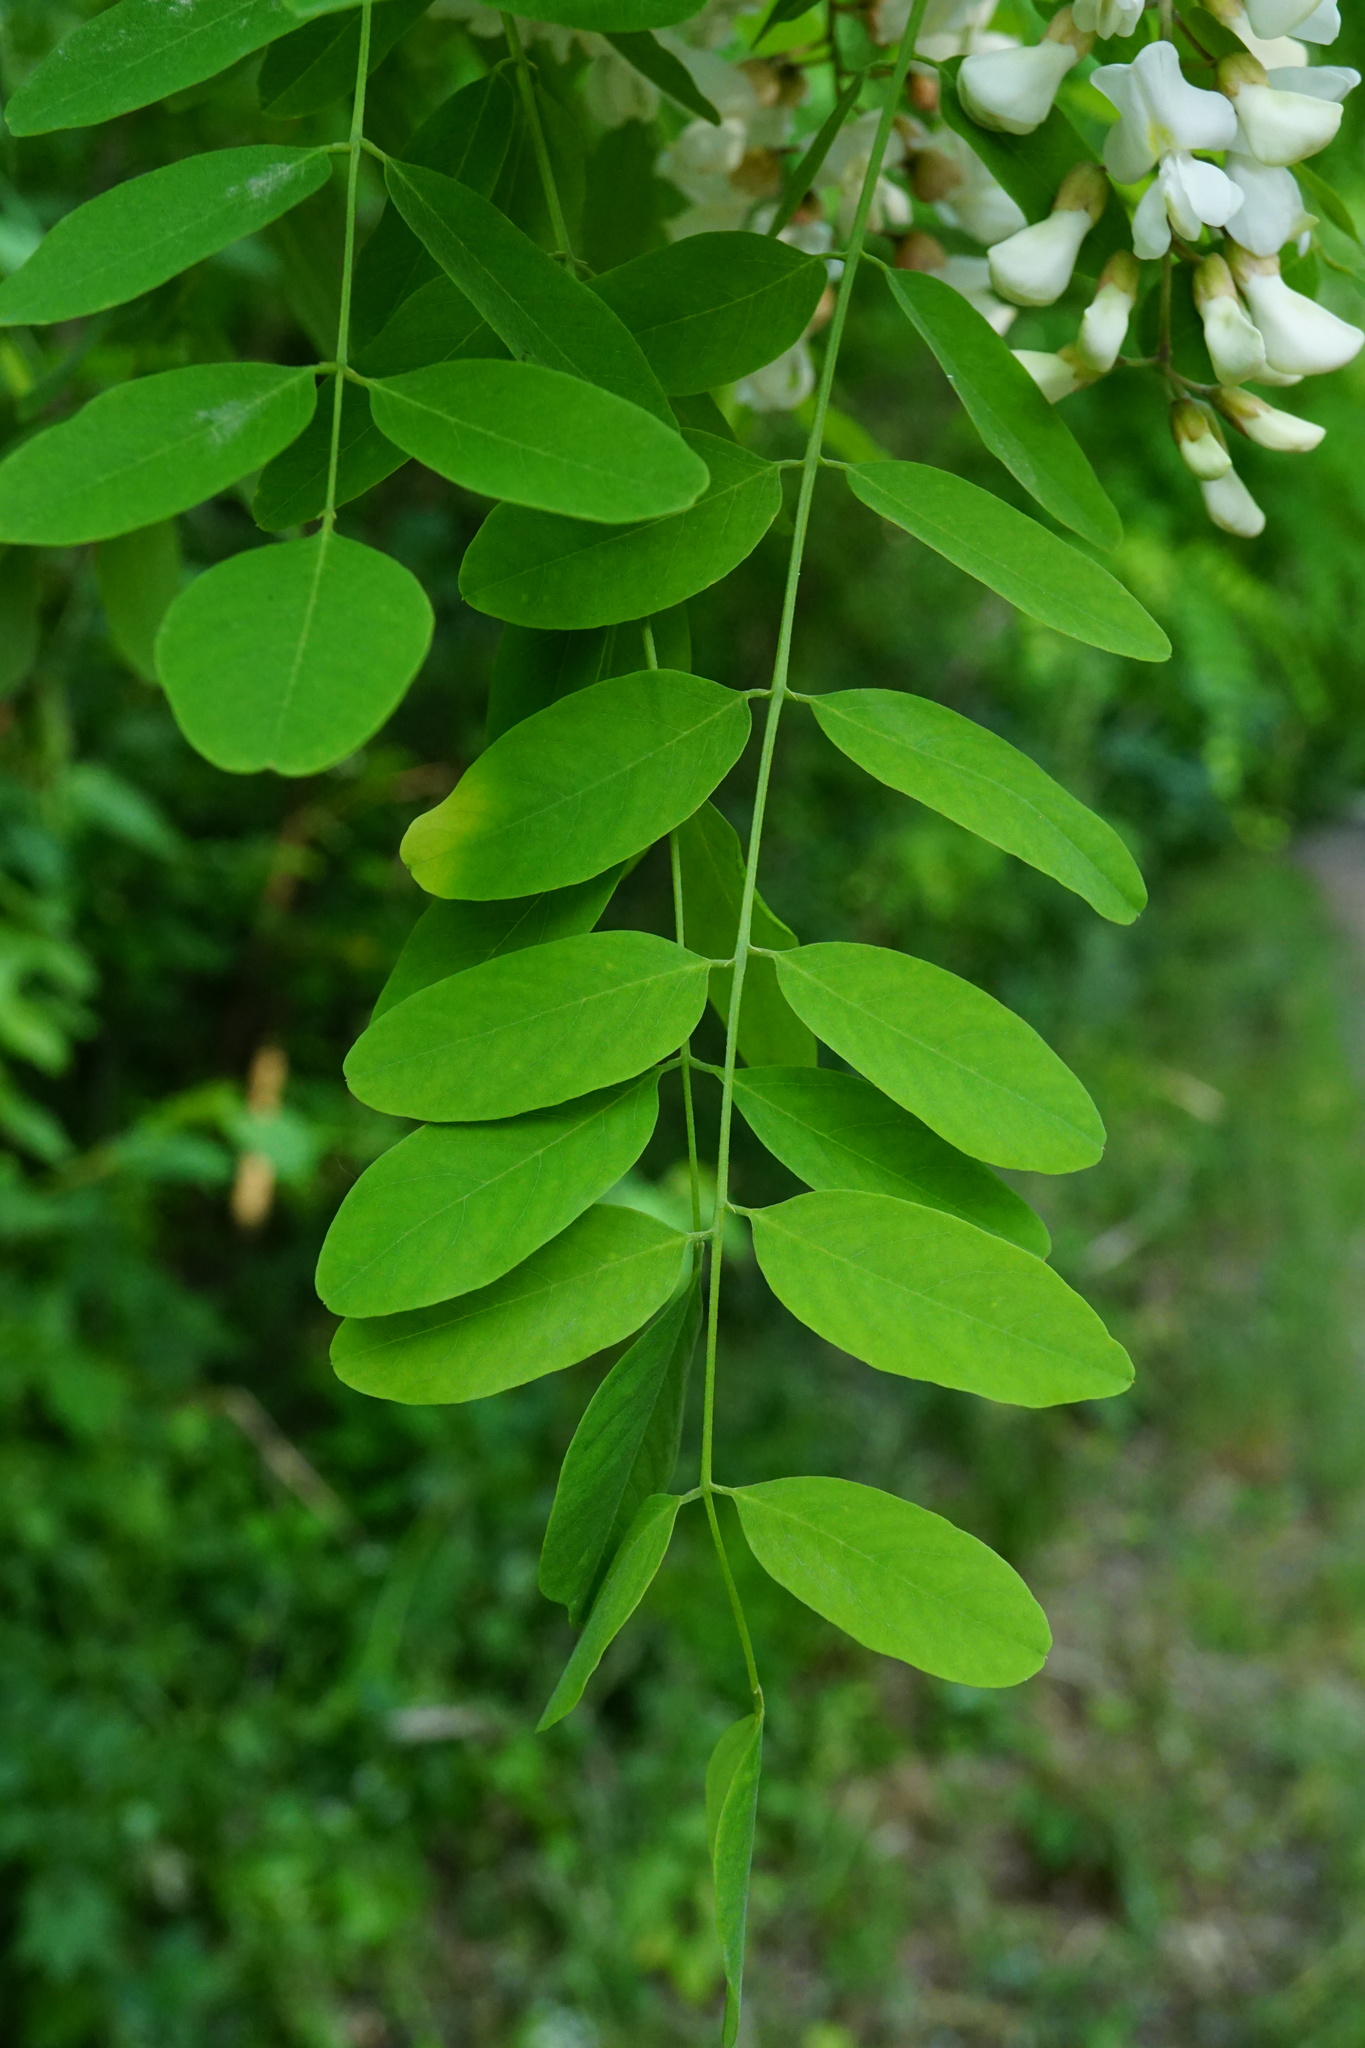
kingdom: Plantae
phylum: Tracheophyta
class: Magnoliopsida
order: Fabales
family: Fabaceae
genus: Robinia
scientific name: Robinia pseudoacacia
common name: Black locust
